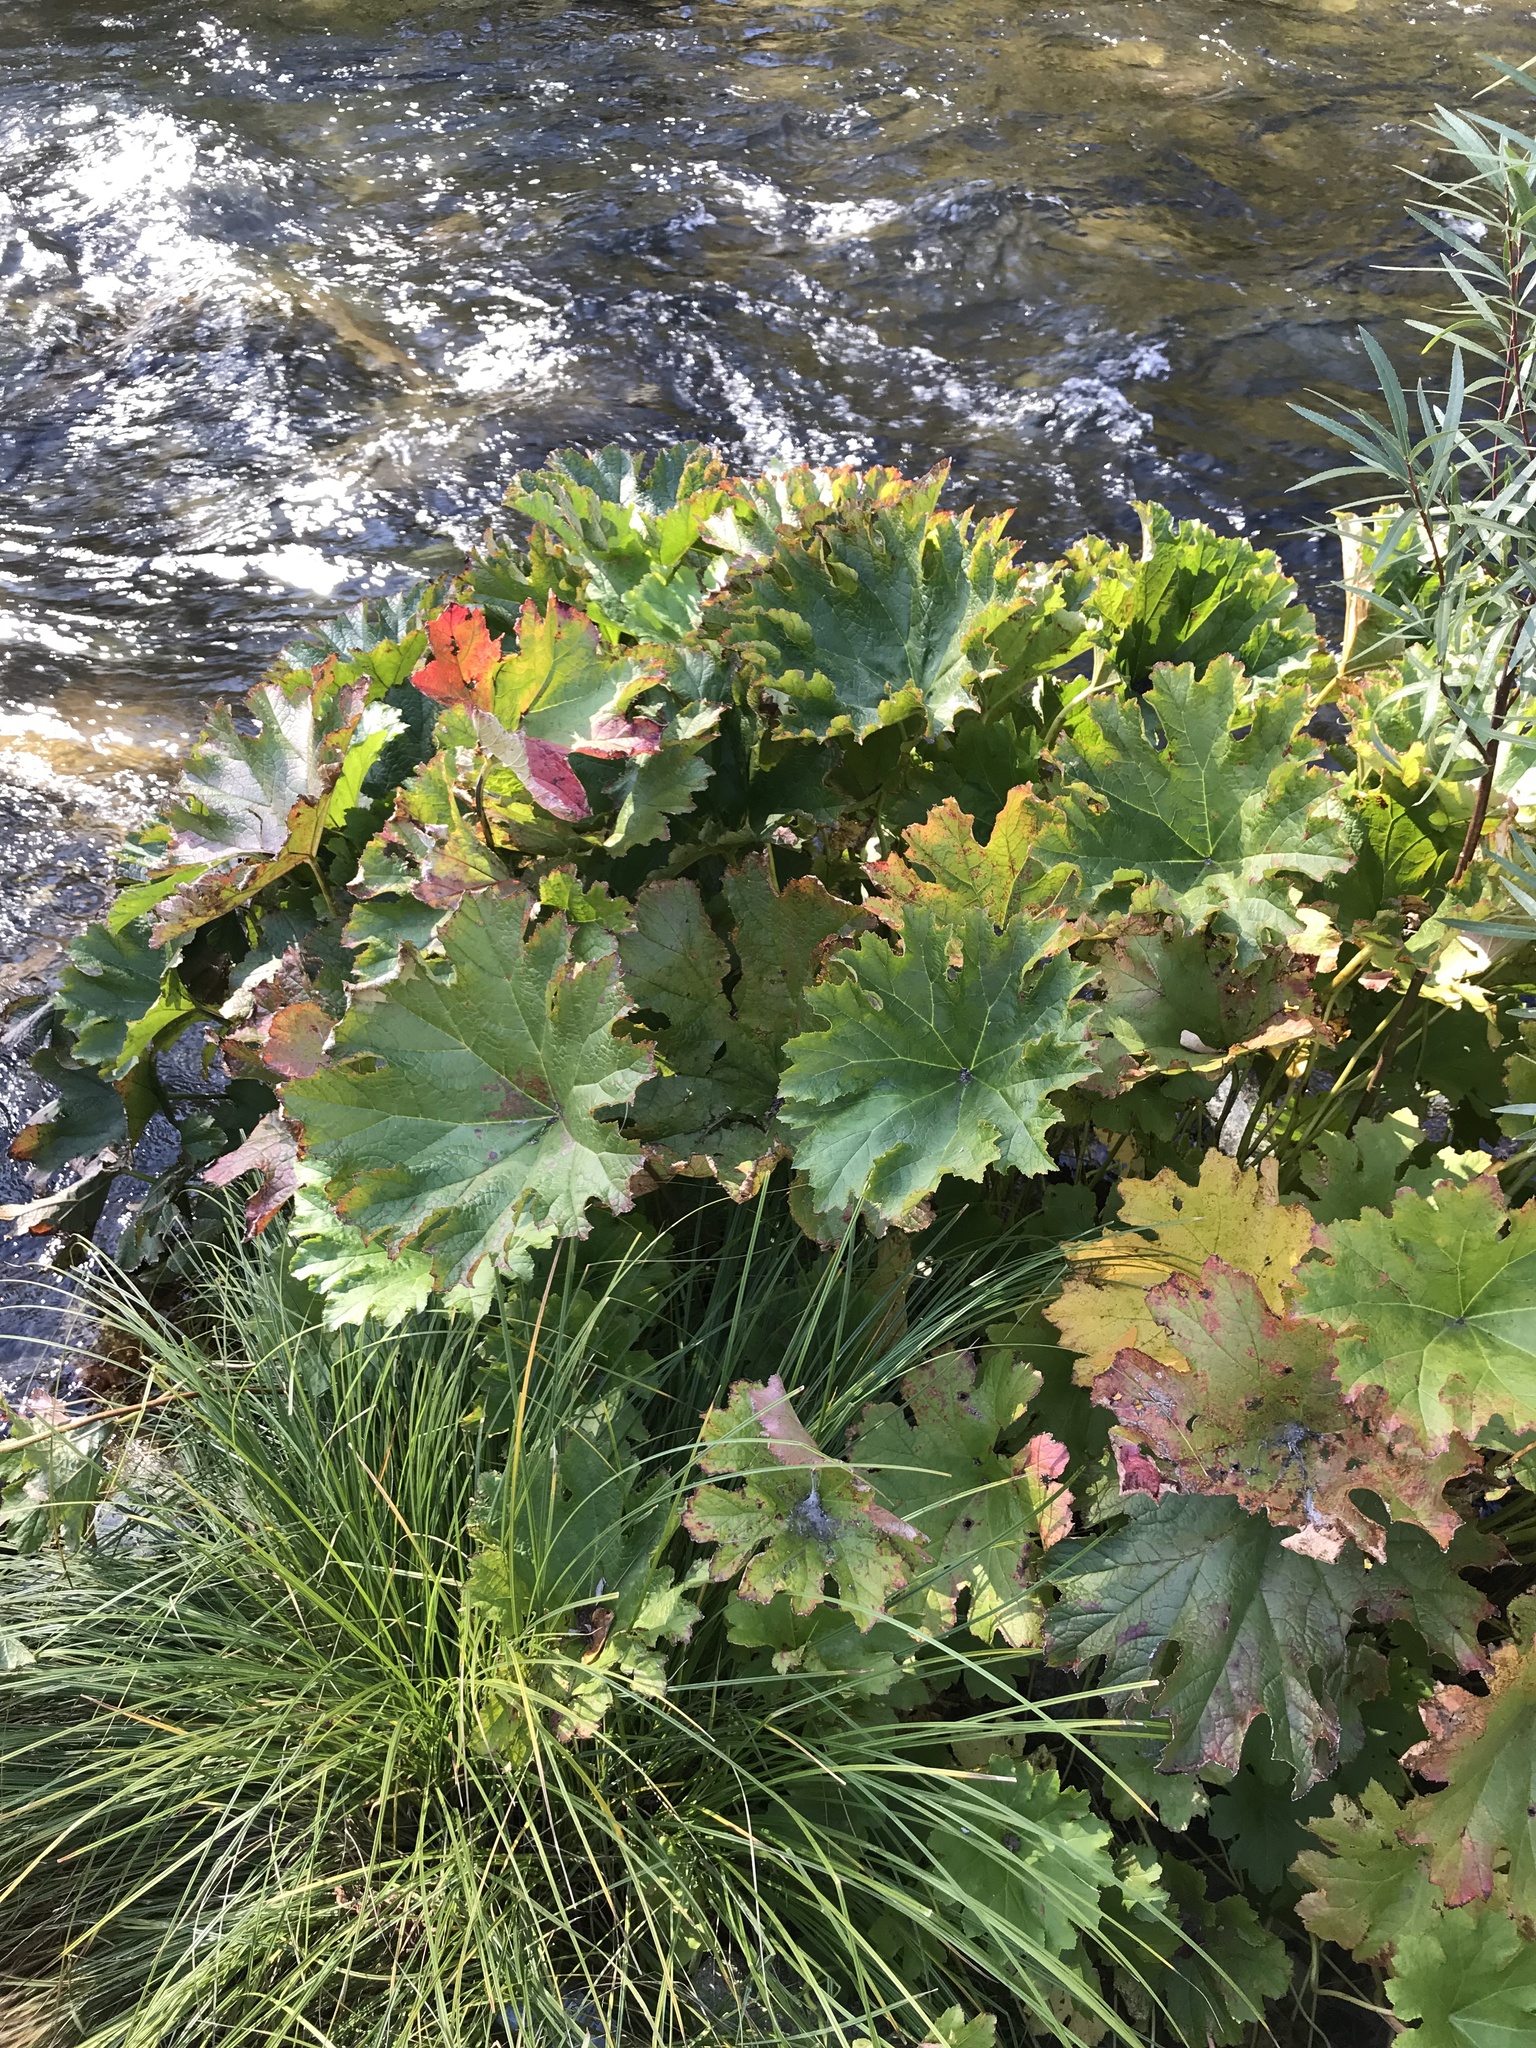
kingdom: Plantae
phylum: Tracheophyta
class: Magnoliopsida
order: Saxifragales
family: Saxifragaceae
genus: Darmera
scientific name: Darmera peltata
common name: Indian-rhubarb
